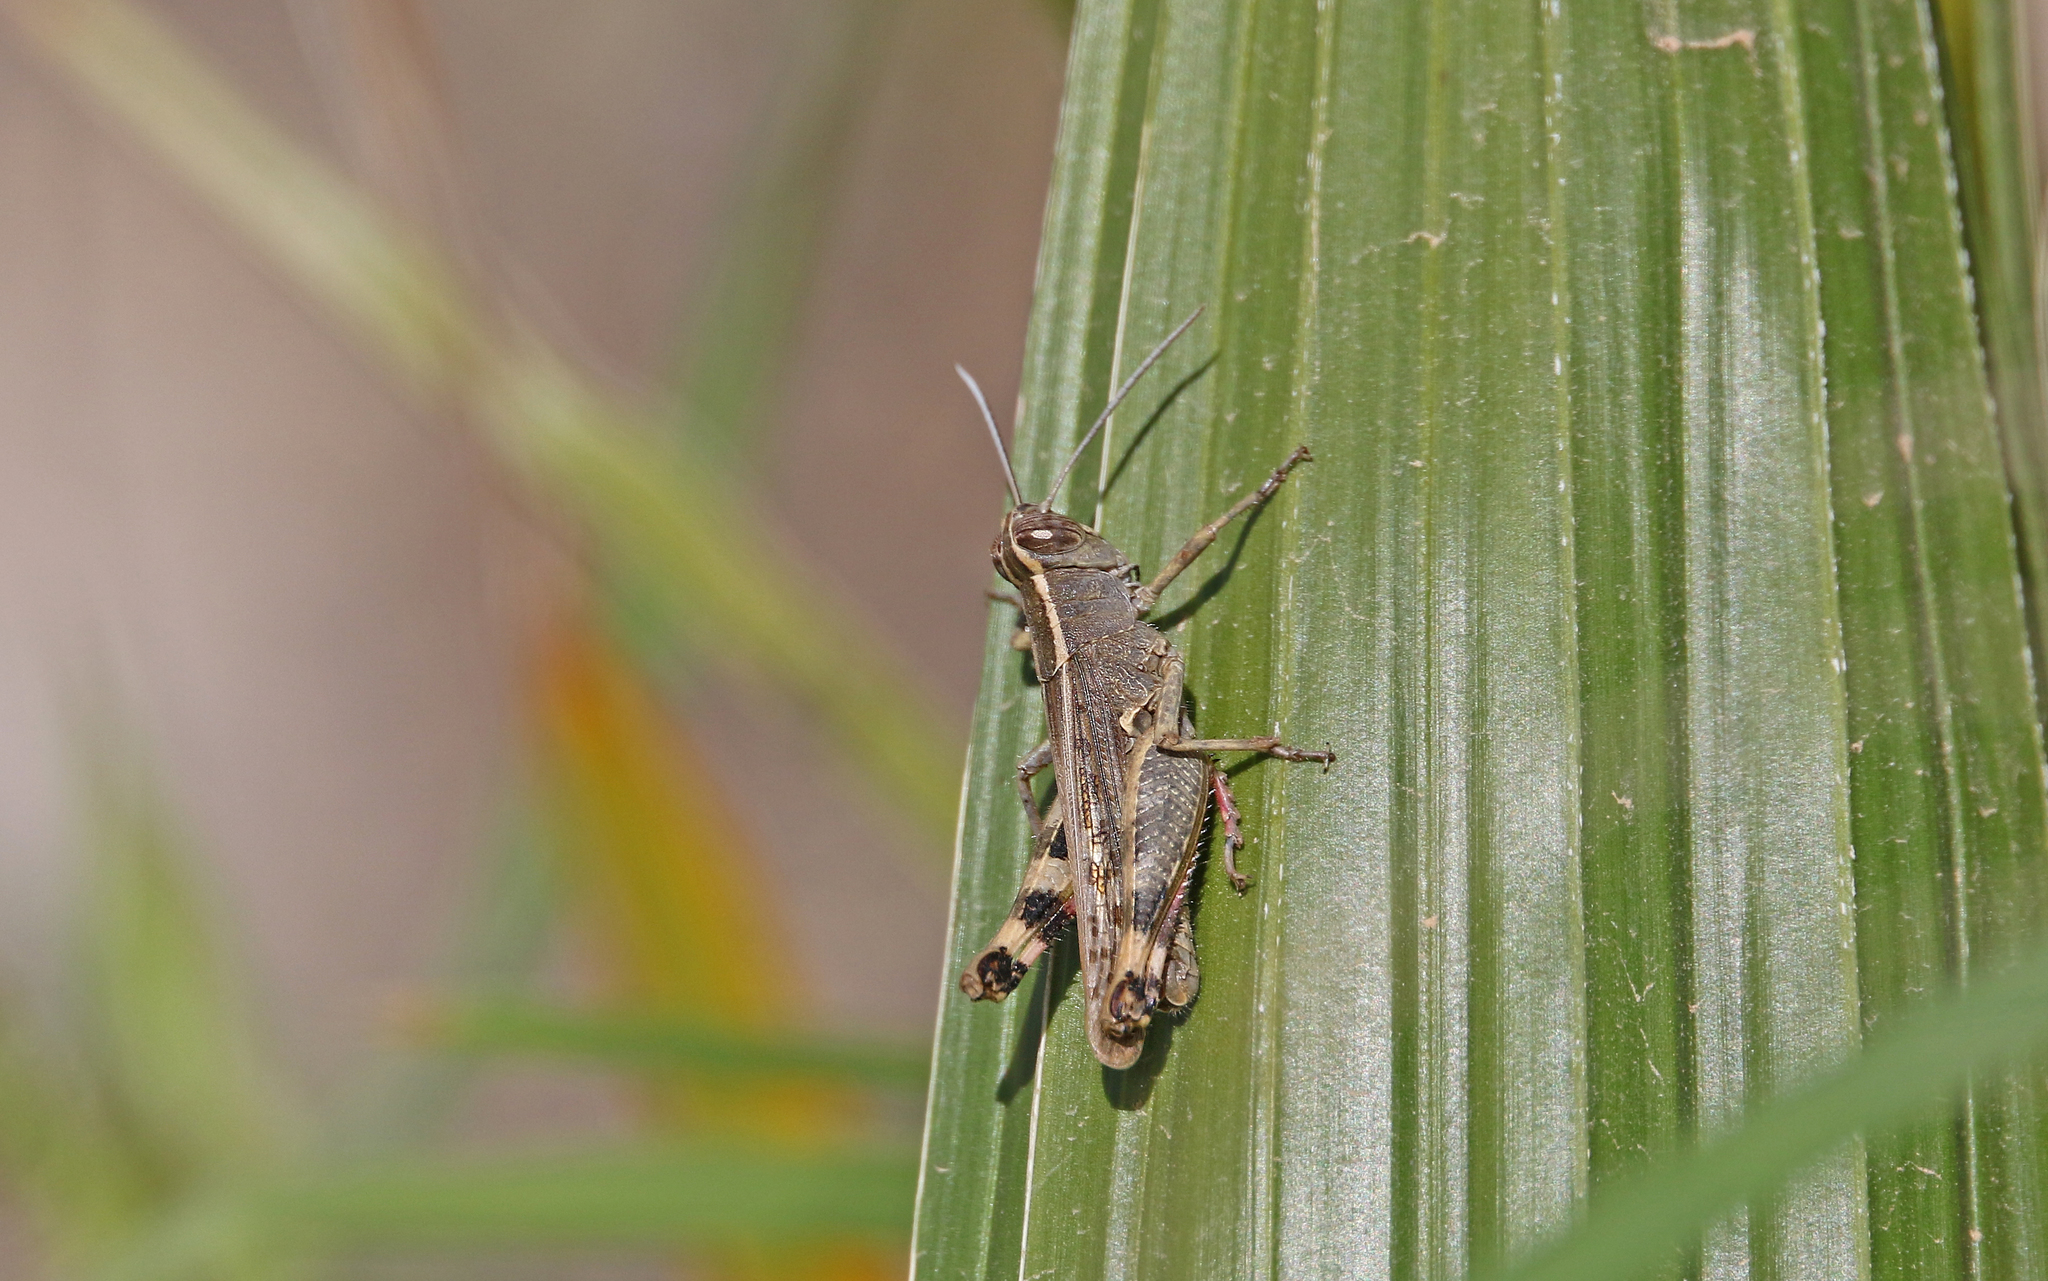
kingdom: Animalia
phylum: Arthropoda
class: Insecta
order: Orthoptera
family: Acrididae
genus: Heteracris
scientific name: Heteracris littoralis
